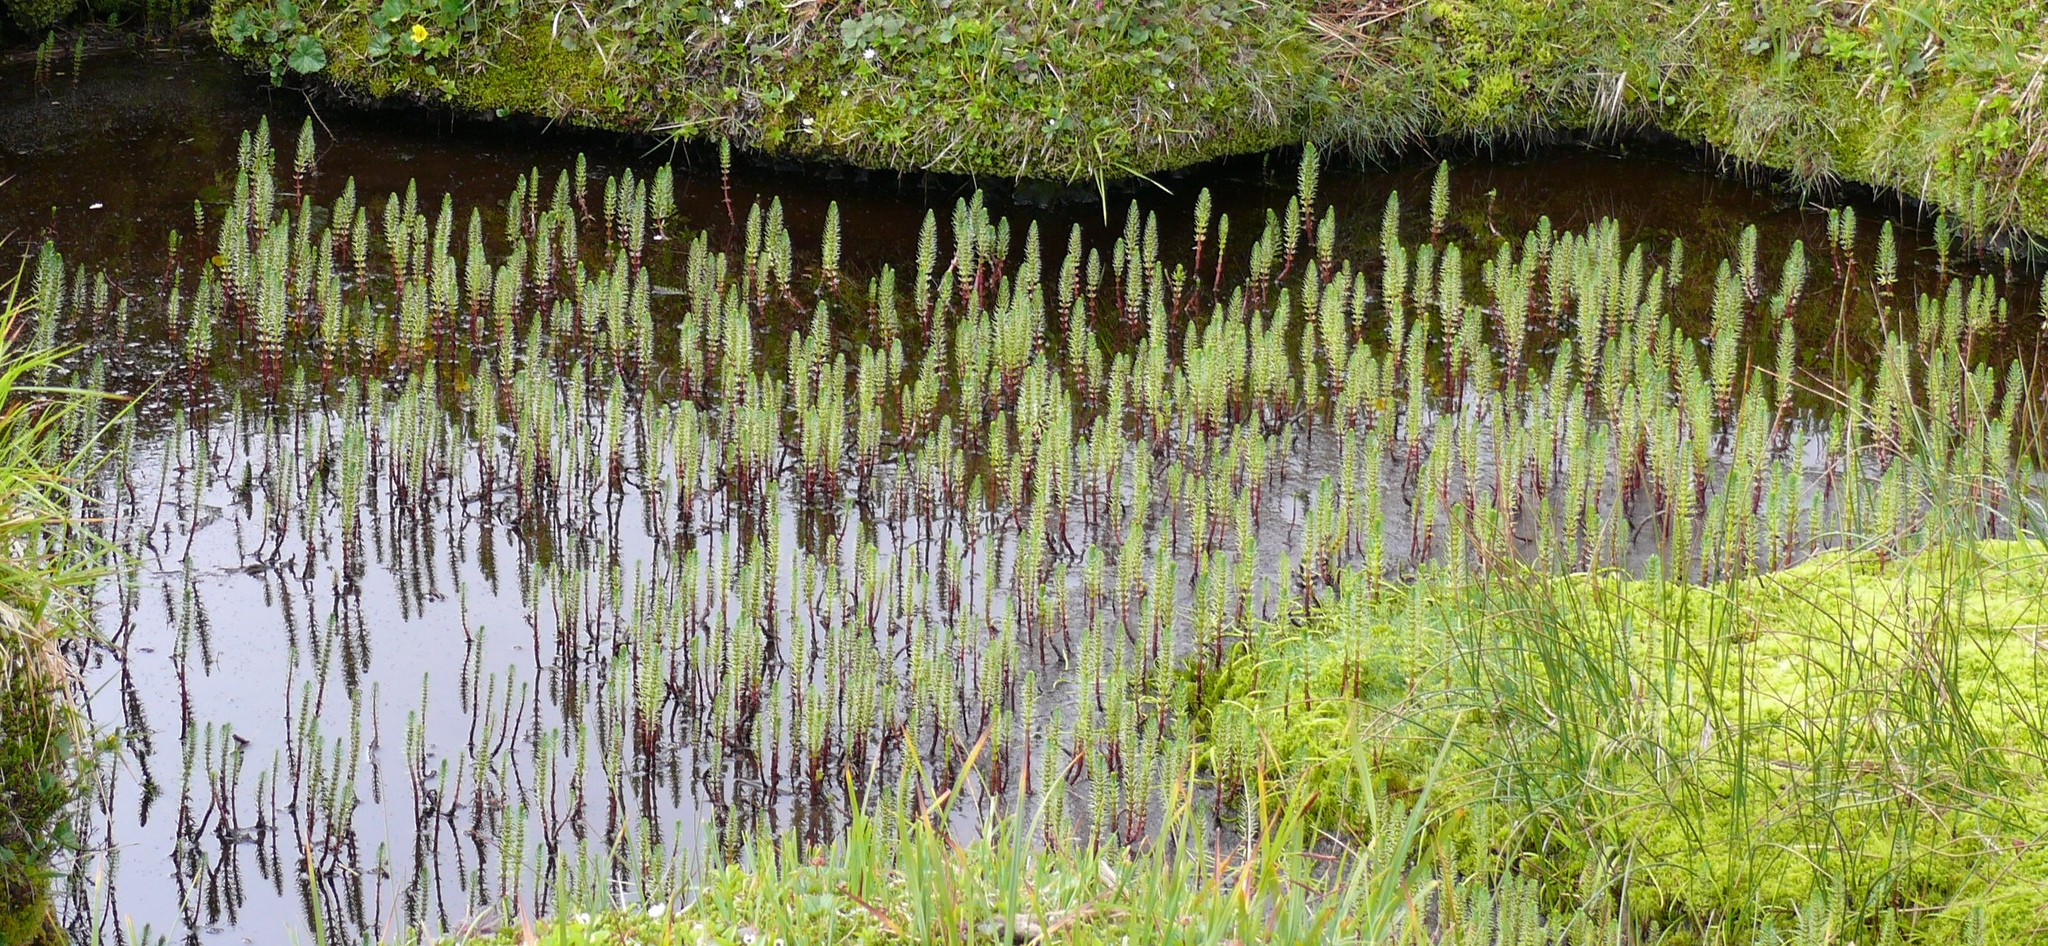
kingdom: Plantae
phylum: Tracheophyta
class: Magnoliopsida
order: Lamiales
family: Plantaginaceae
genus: Hippuris
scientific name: Hippuris vulgaris
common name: Mare's-tail
